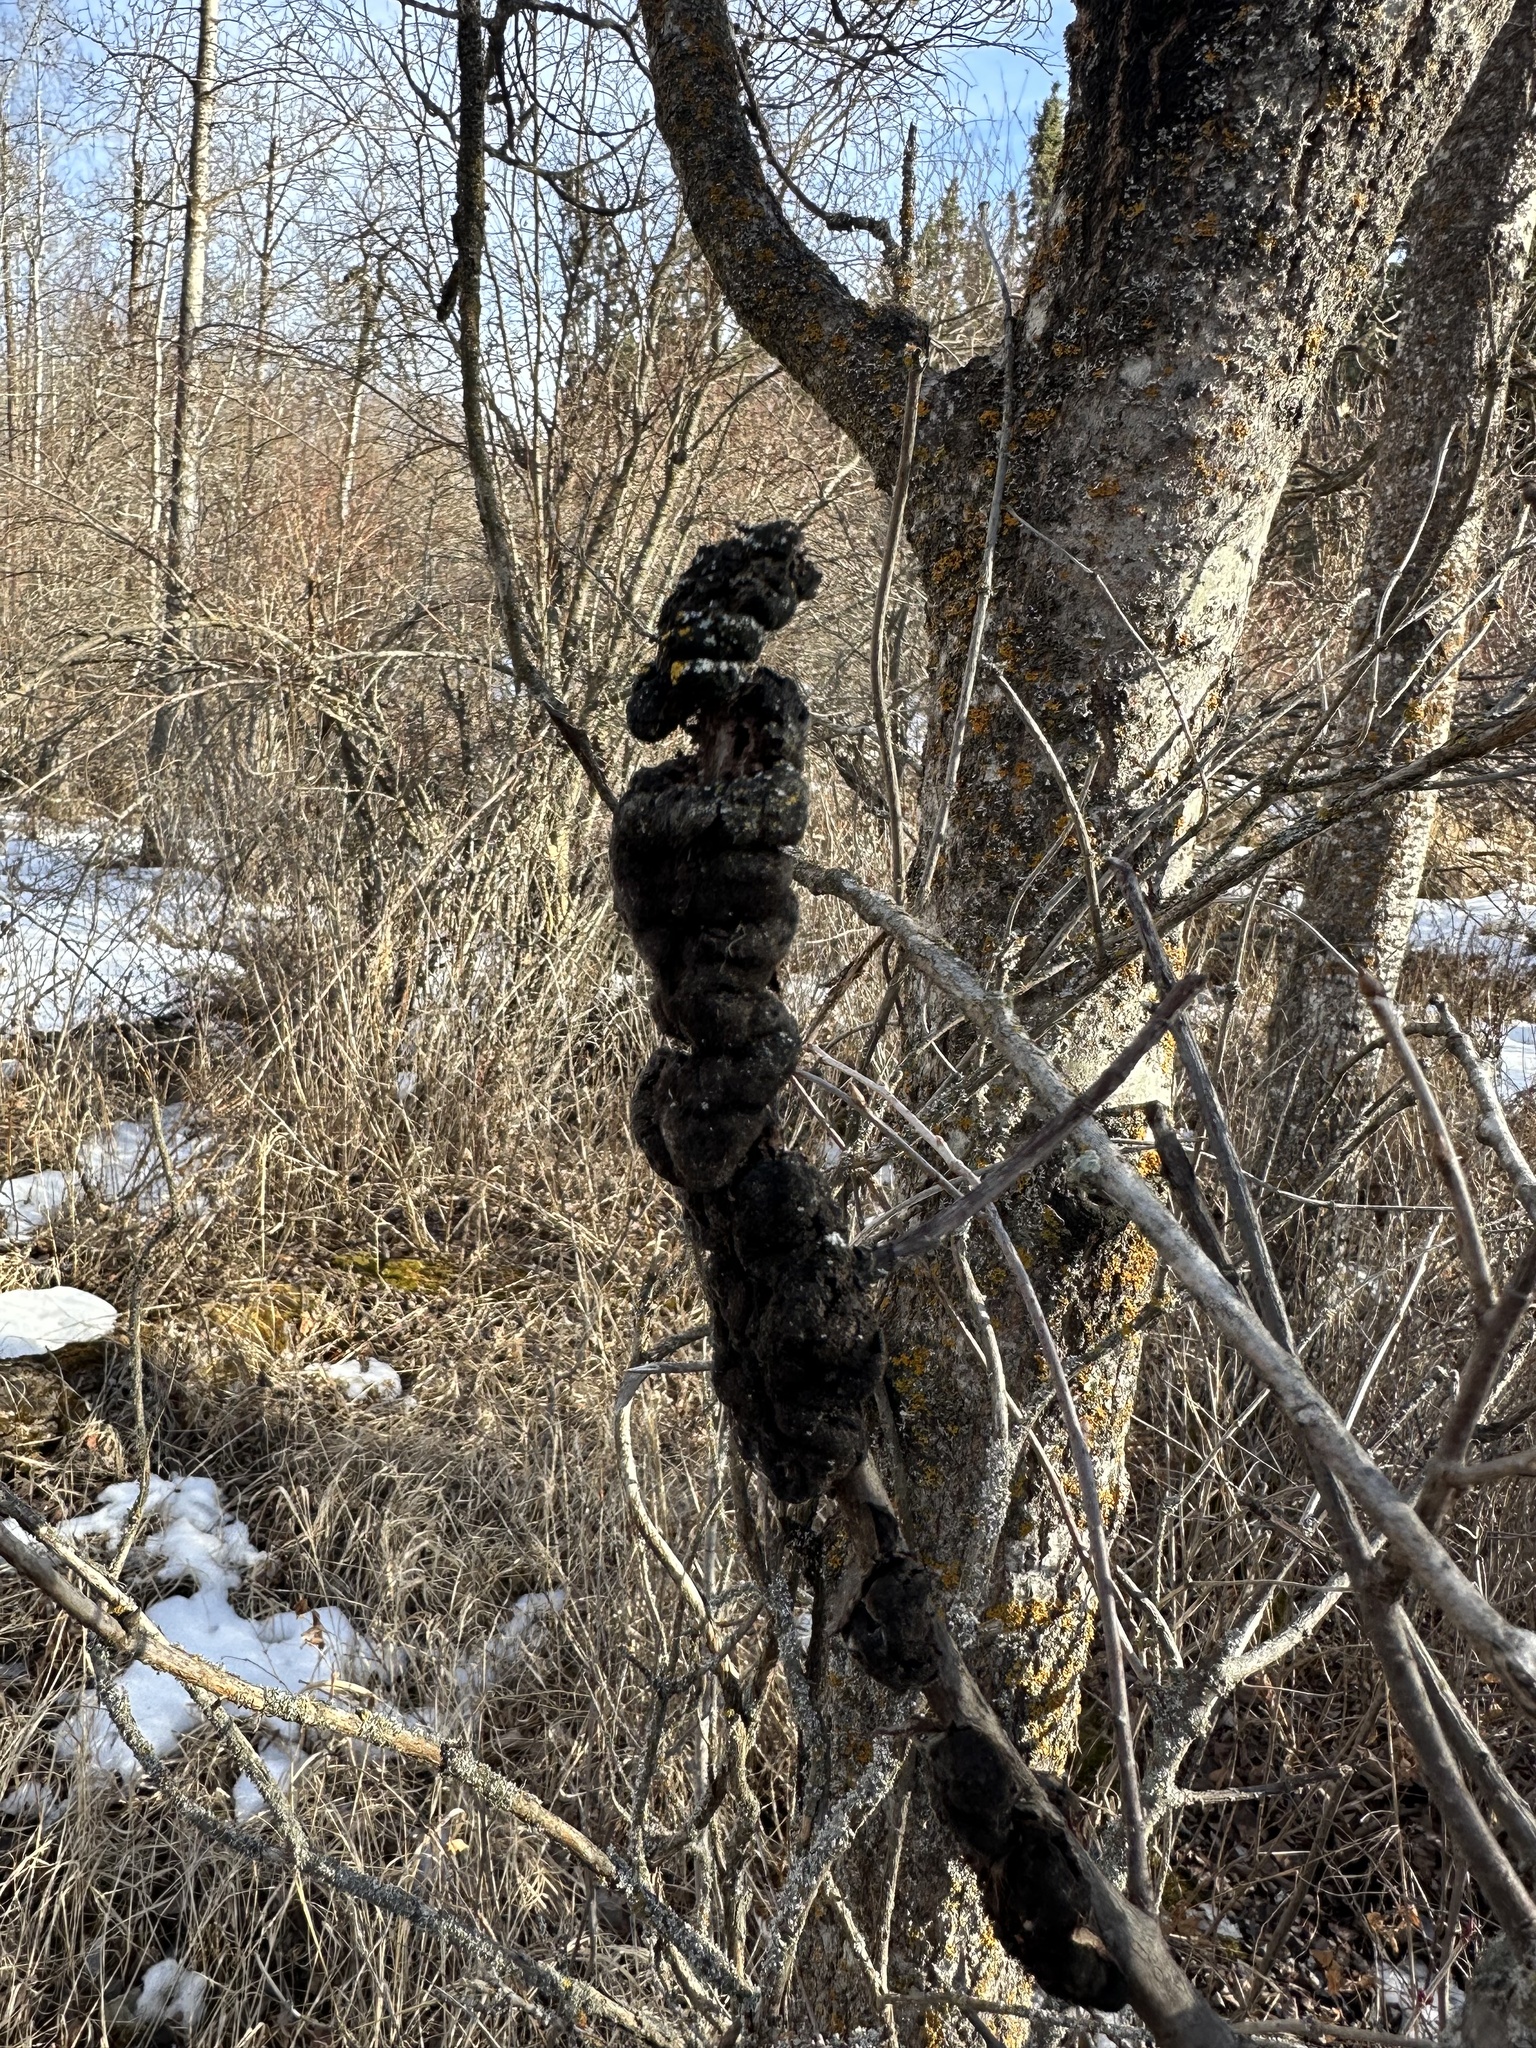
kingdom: Fungi
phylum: Ascomycota
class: Dothideomycetes
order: Venturiales
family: Venturiaceae
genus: Apiosporina
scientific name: Apiosporina morbosa
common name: Black knot
